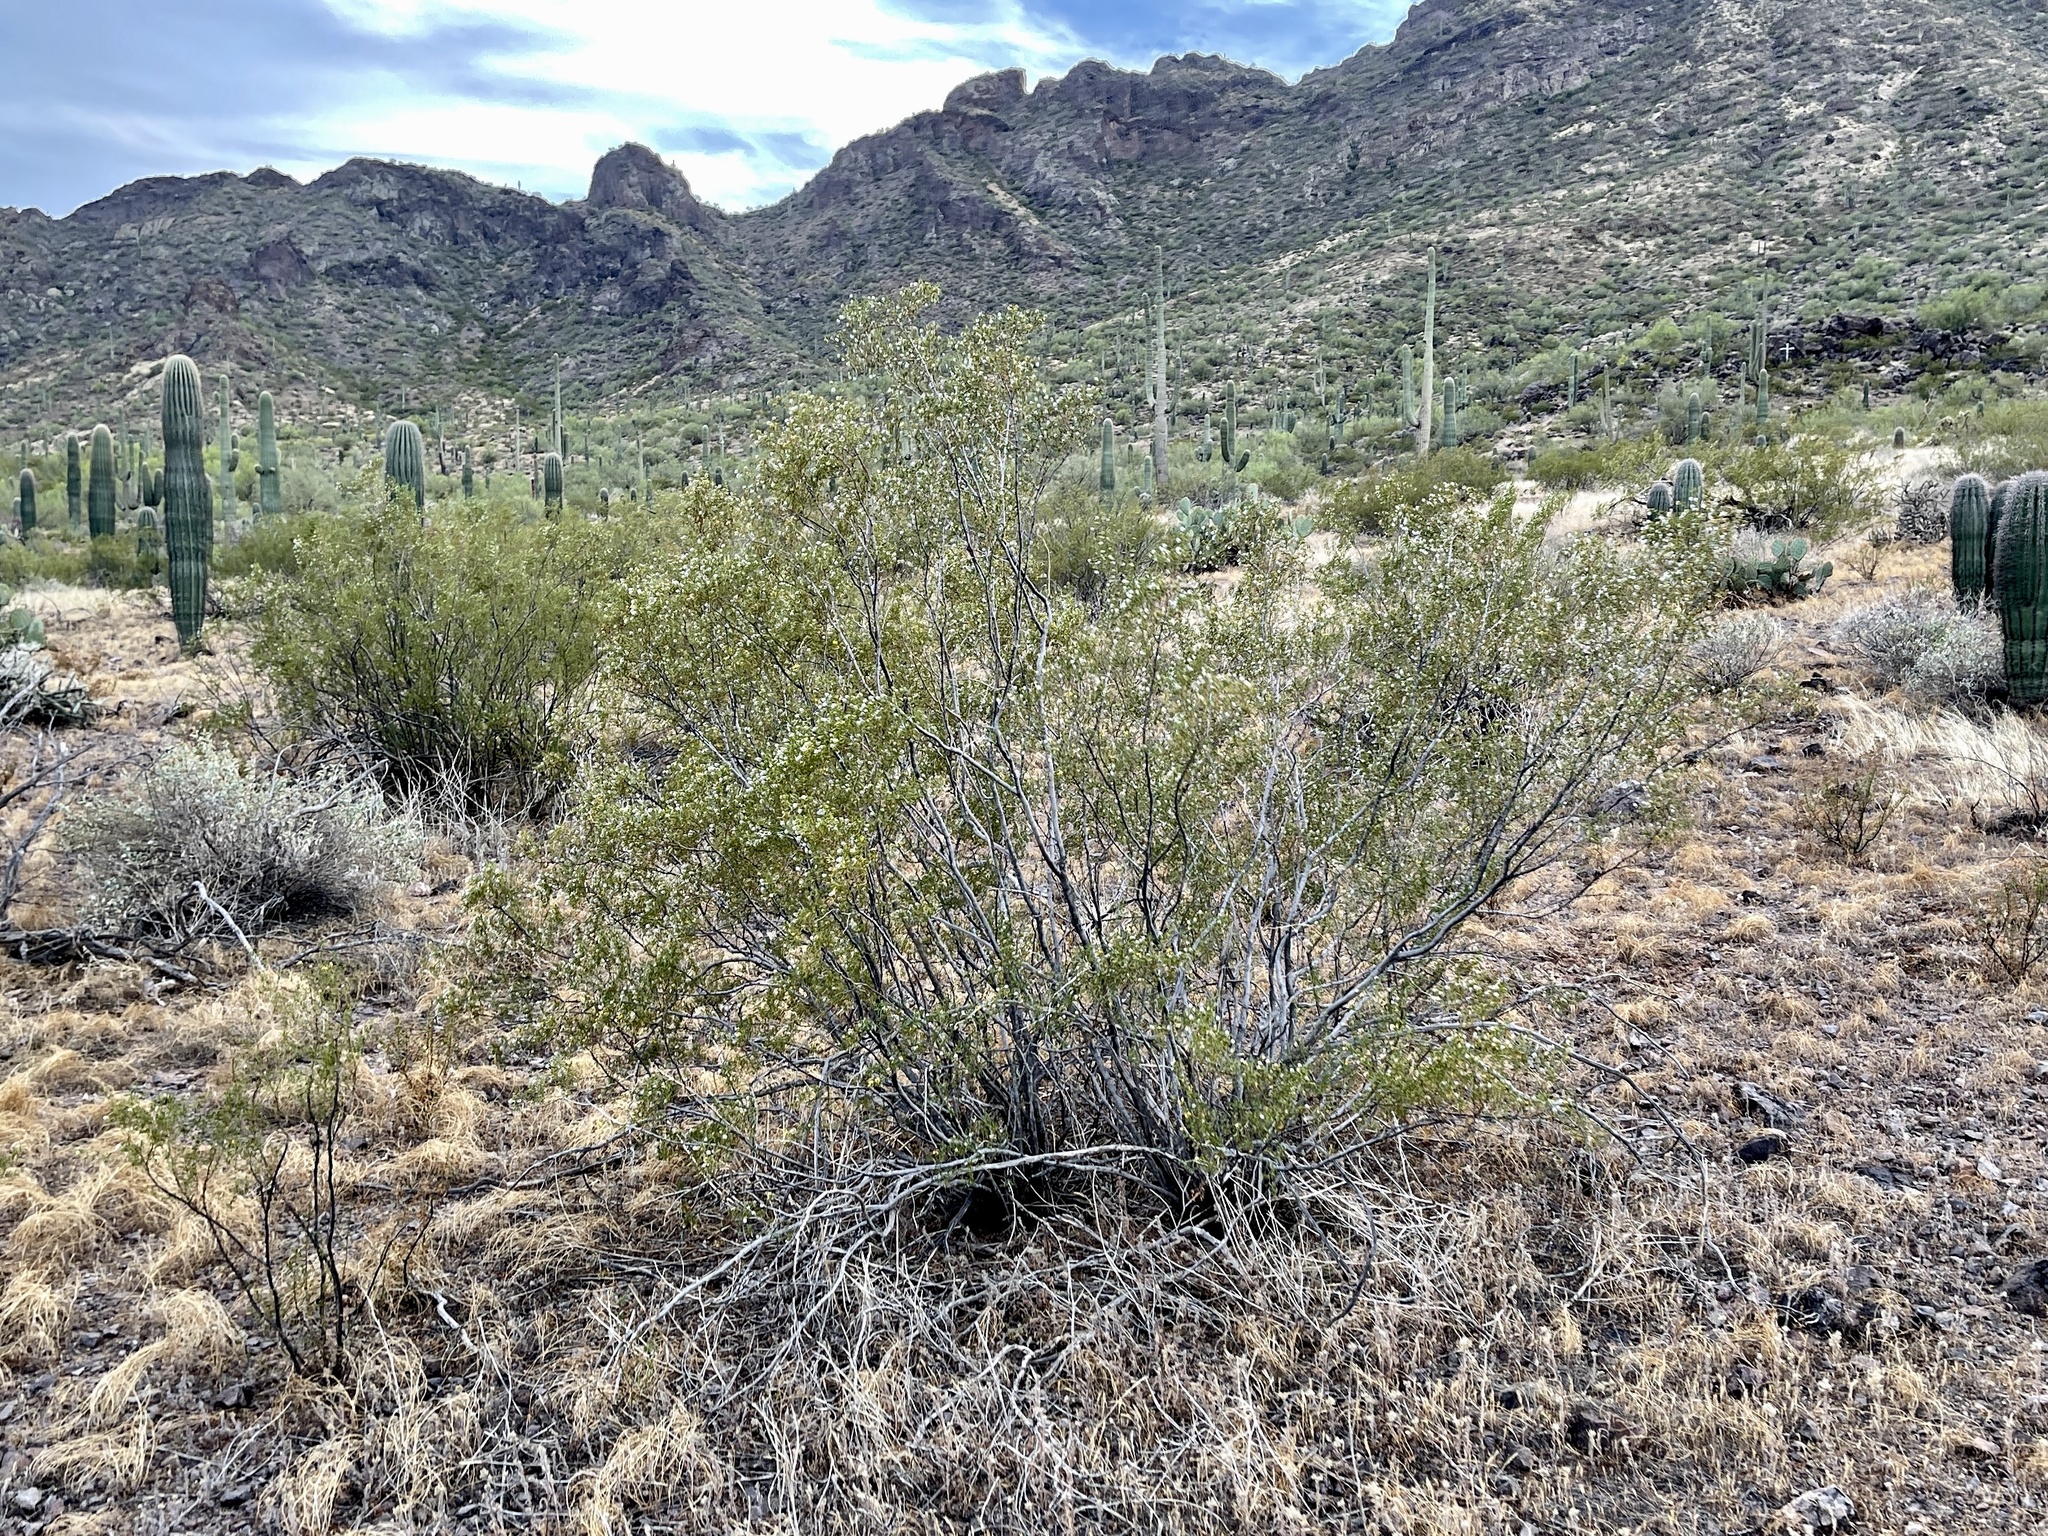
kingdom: Plantae
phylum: Tracheophyta
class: Magnoliopsida
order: Zygophyllales
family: Zygophyllaceae
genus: Larrea
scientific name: Larrea tridentata
